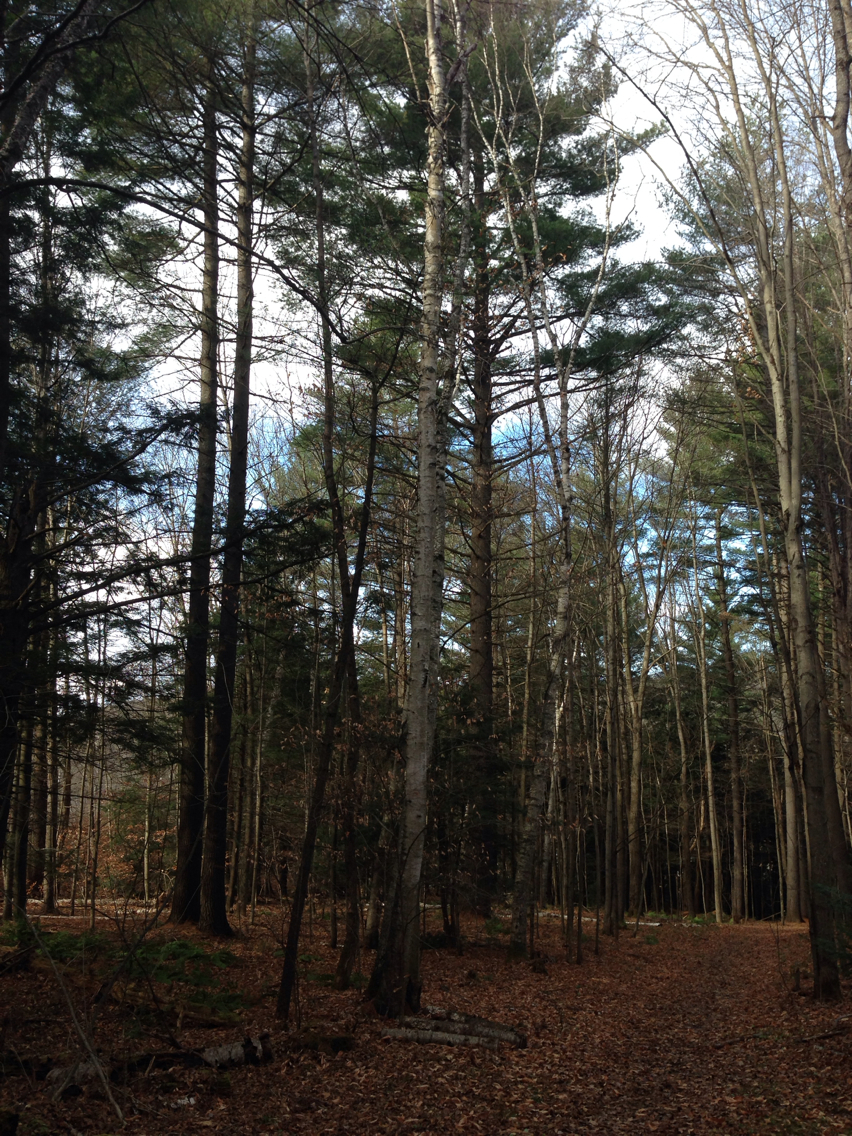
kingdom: Plantae
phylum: Tracheophyta
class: Magnoliopsida
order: Fagales
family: Betulaceae
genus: Betula
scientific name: Betula papyrifera
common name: Paper birch
